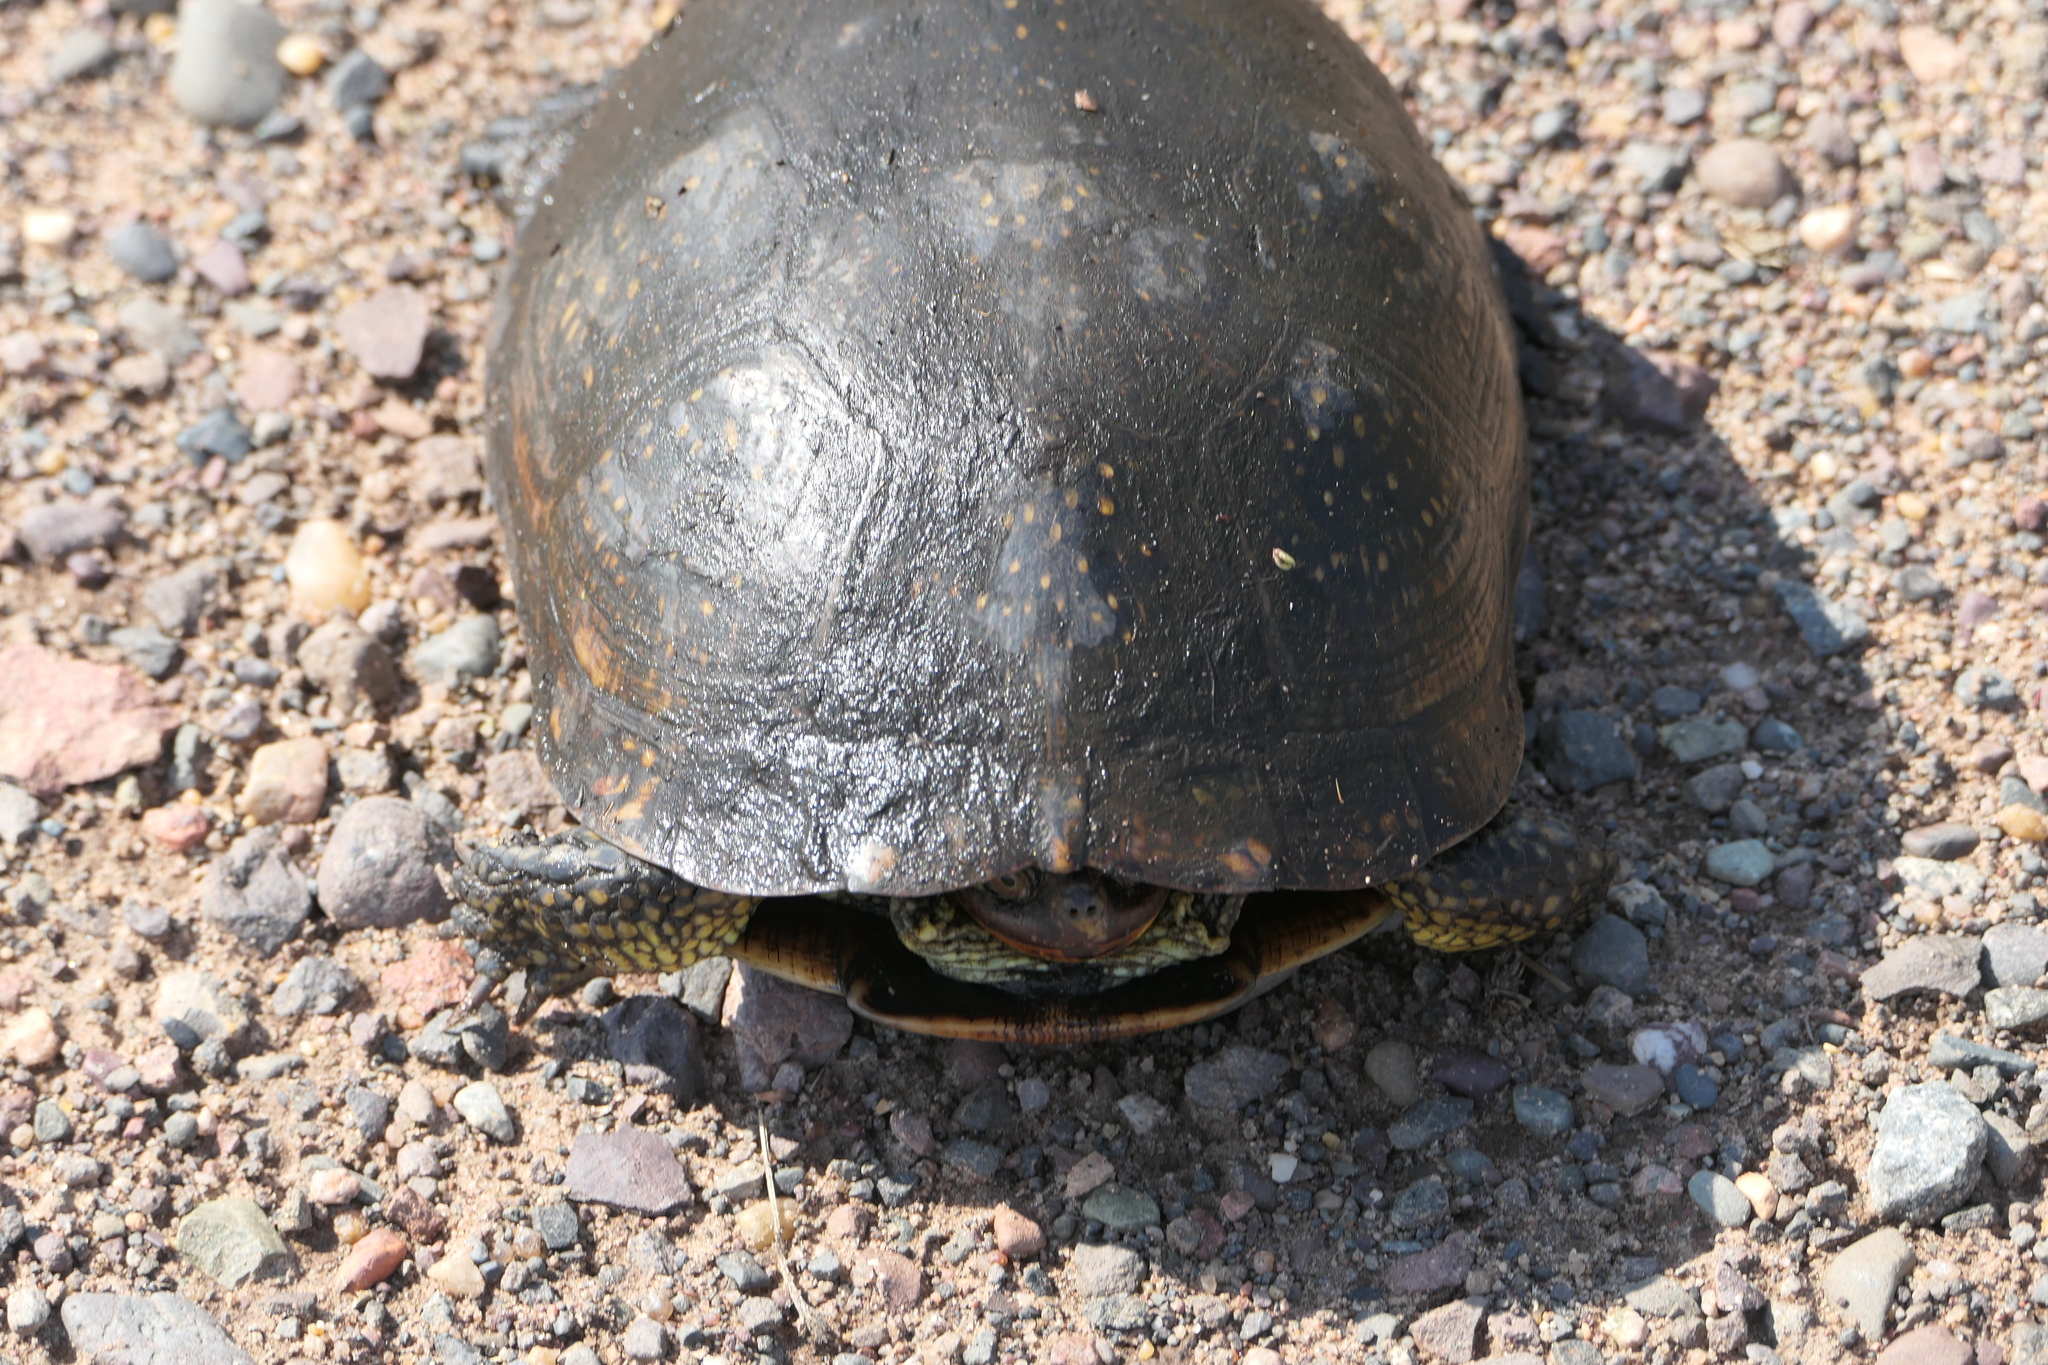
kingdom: Animalia
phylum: Chordata
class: Testudines
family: Emydidae
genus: Emys
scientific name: Emys blandingii
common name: Blanding's turtle
